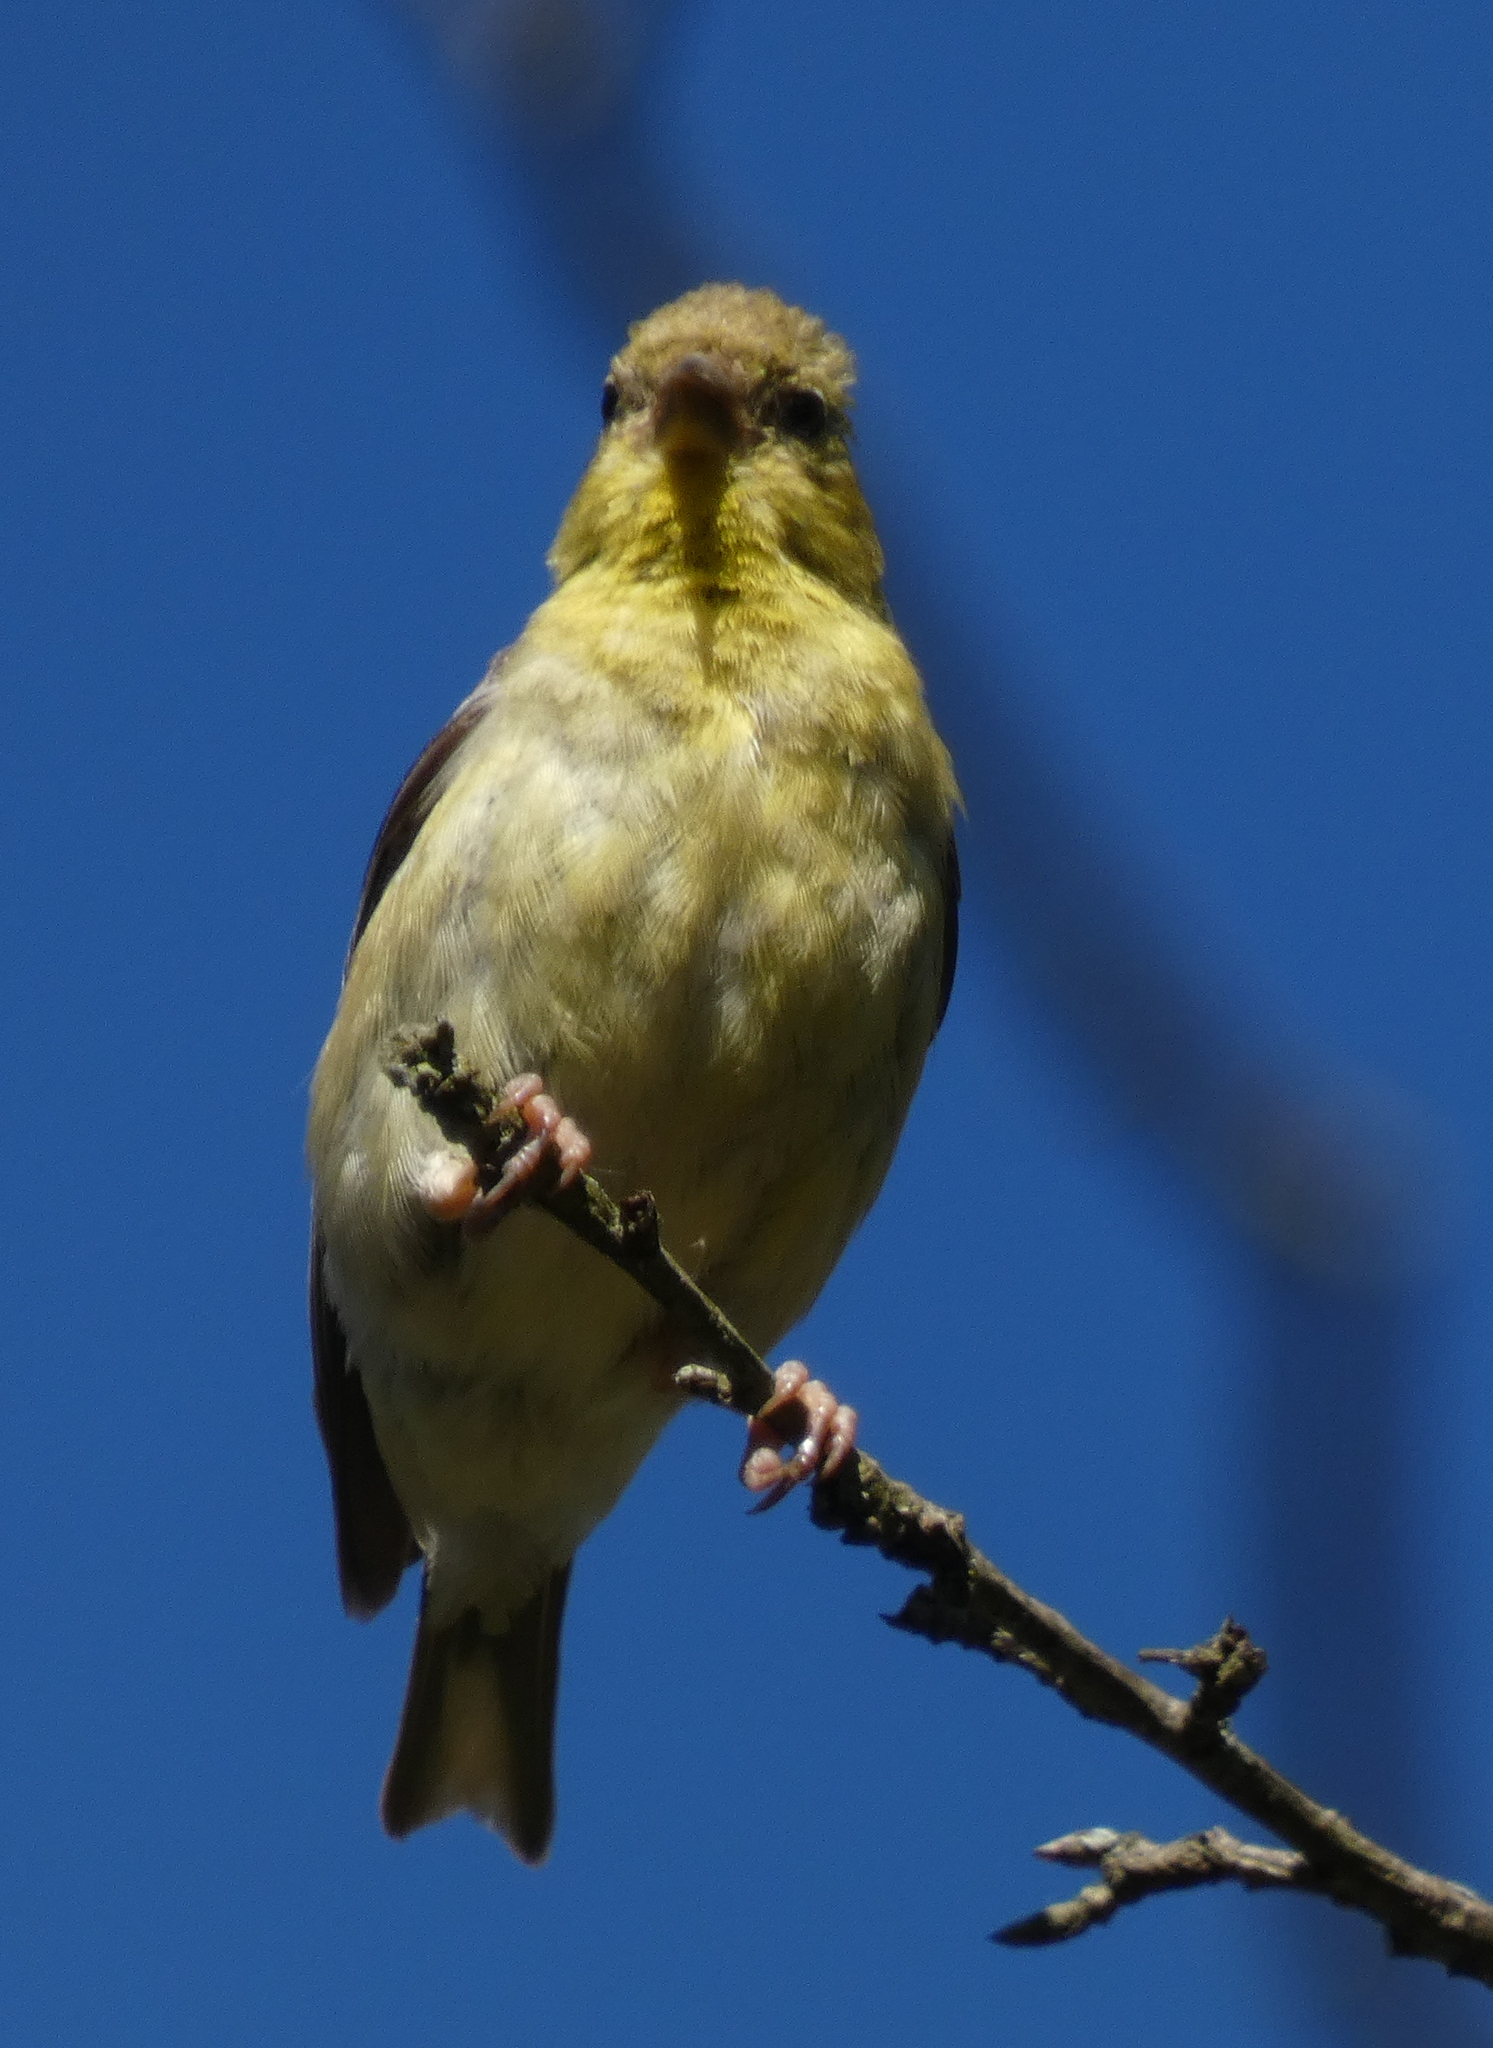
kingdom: Animalia
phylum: Chordata
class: Aves
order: Passeriformes
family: Fringillidae
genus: Spinus
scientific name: Spinus tristis
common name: American goldfinch
